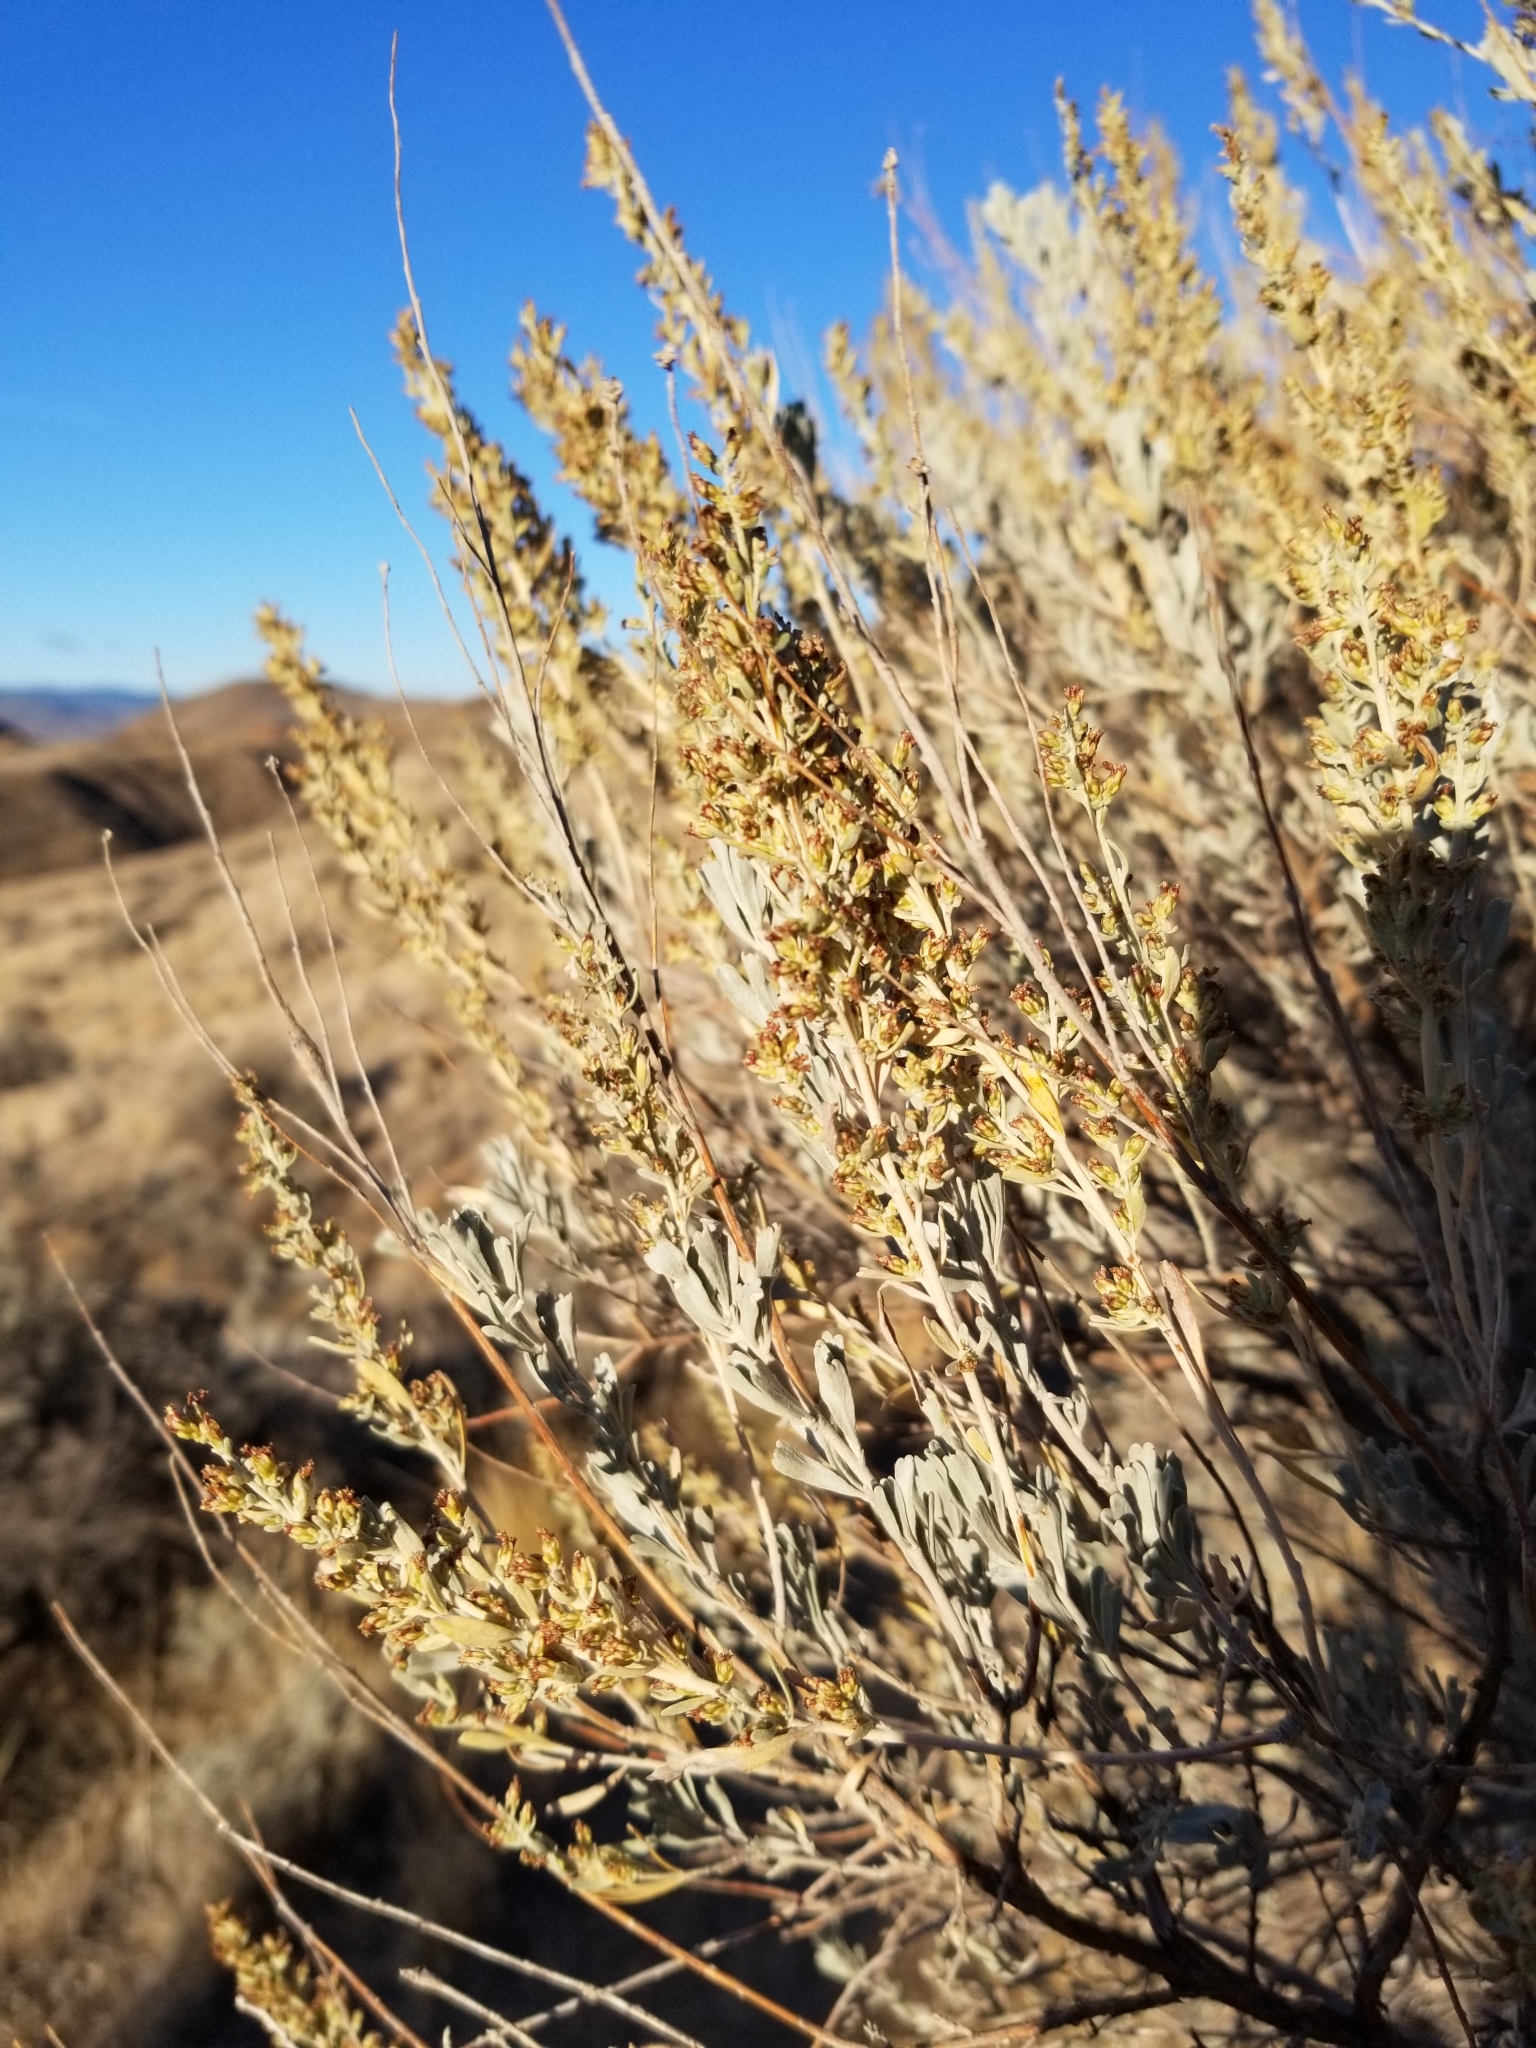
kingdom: Plantae
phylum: Tracheophyta
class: Magnoliopsida
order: Asterales
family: Asteraceae
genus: Artemisia
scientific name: Artemisia tridentata
